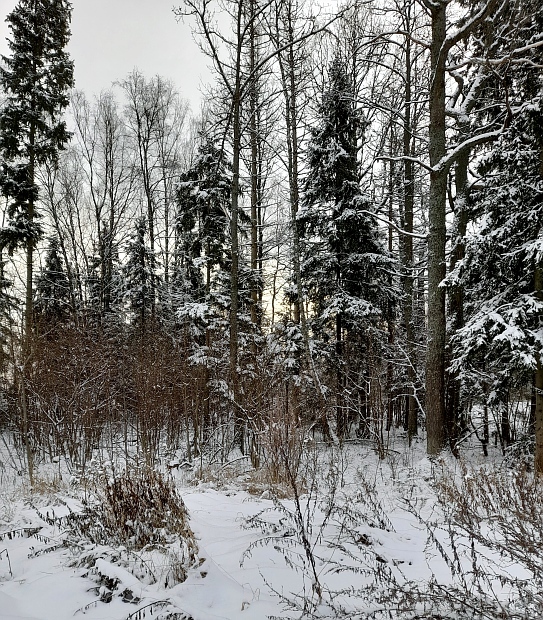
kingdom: Plantae
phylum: Tracheophyta
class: Pinopsida
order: Pinales
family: Pinaceae
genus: Picea
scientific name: Picea abies
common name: Norway spruce
